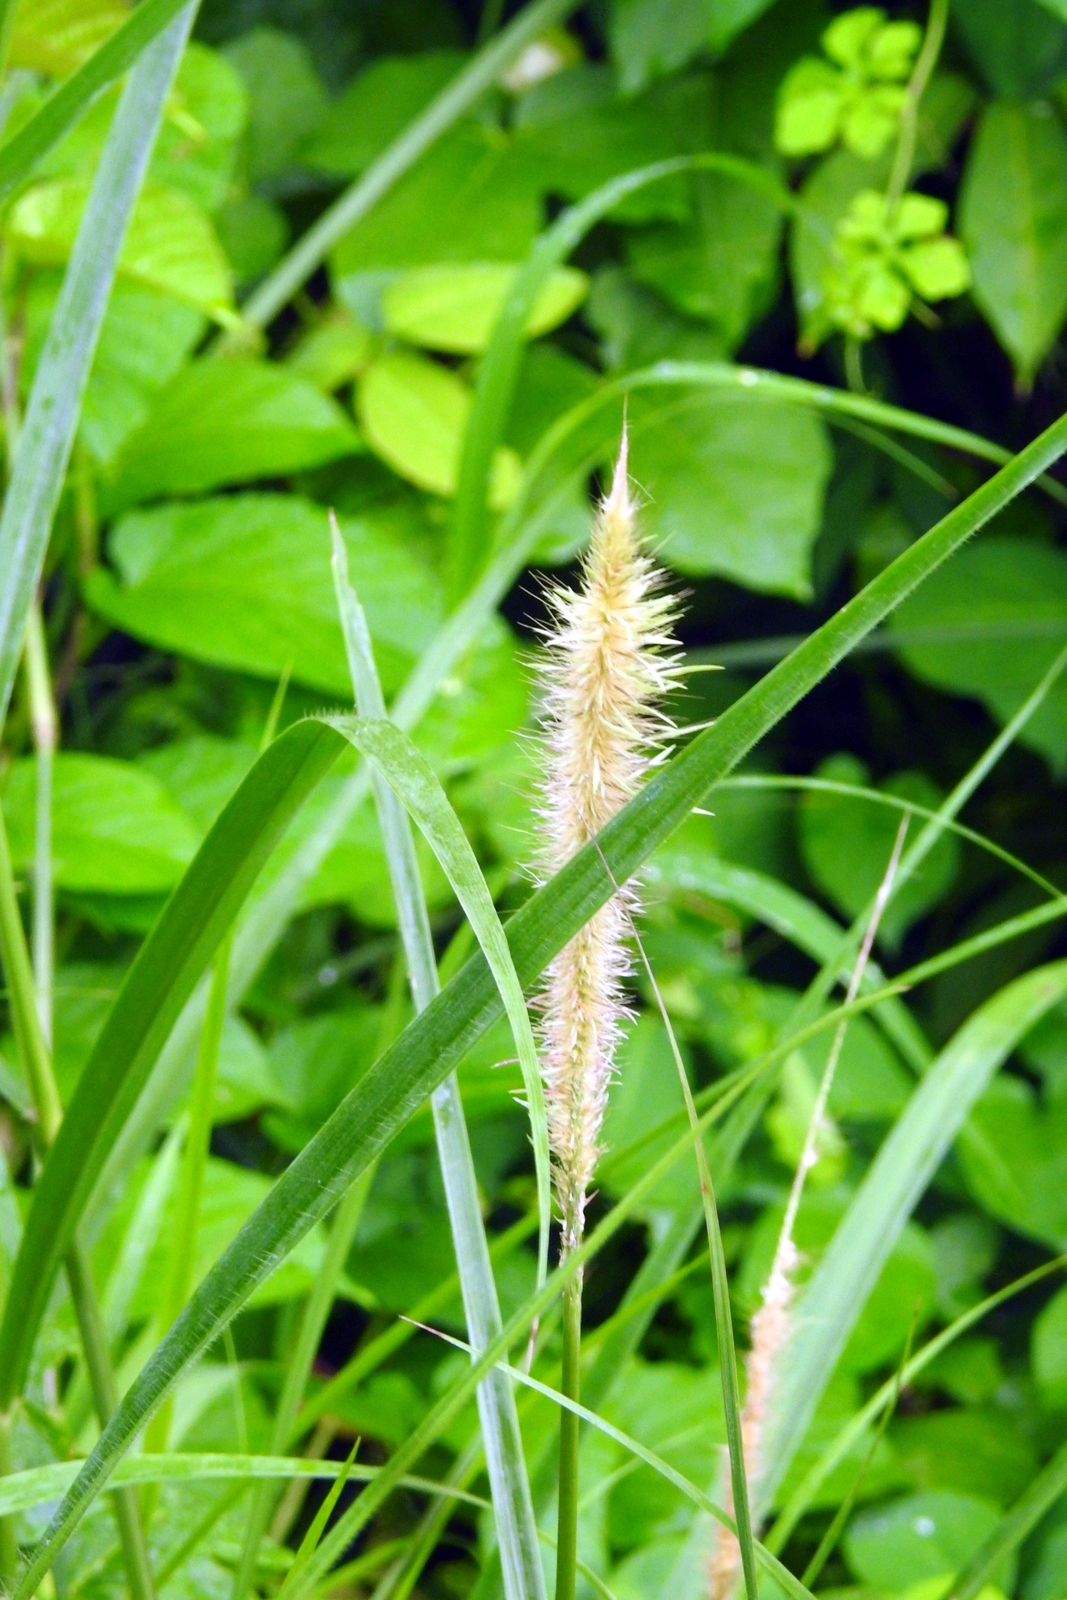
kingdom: Plantae
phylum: Tracheophyta
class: Liliopsida
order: Poales
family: Poaceae
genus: Cenchrus
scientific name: Cenchrus purpureus
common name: Elephant grass
